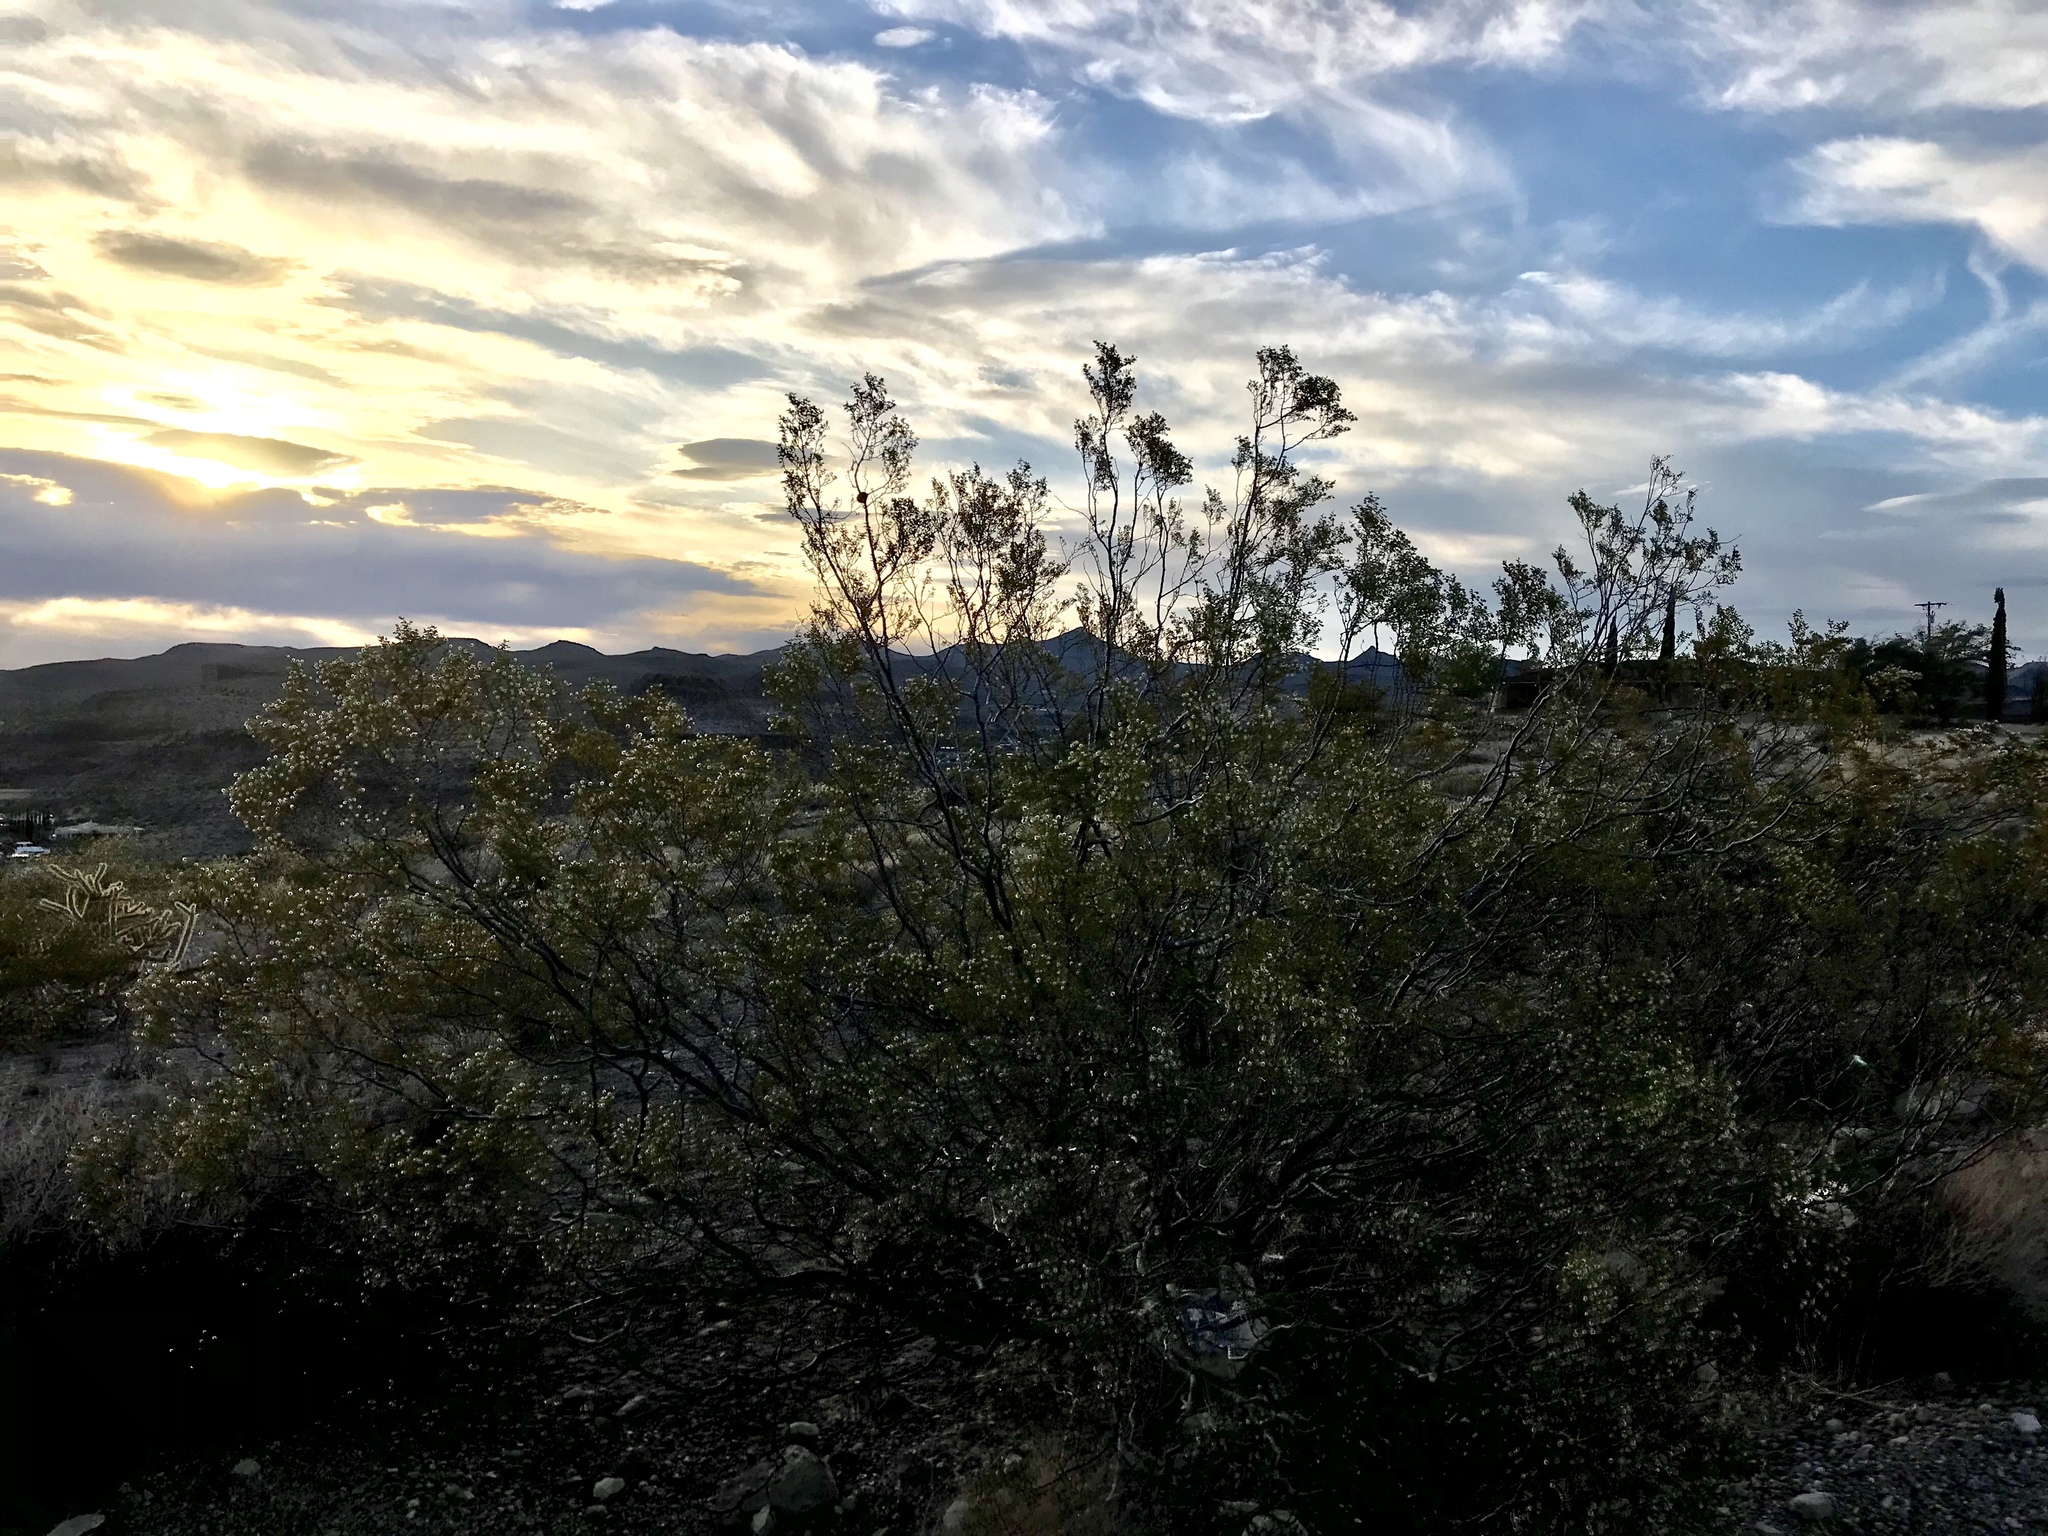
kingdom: Plantae
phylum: Tracheophyta
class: Magnoliopsida
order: Zygophyllales
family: Zygophyllaceae
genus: Larrea
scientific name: Larrea tridentata
